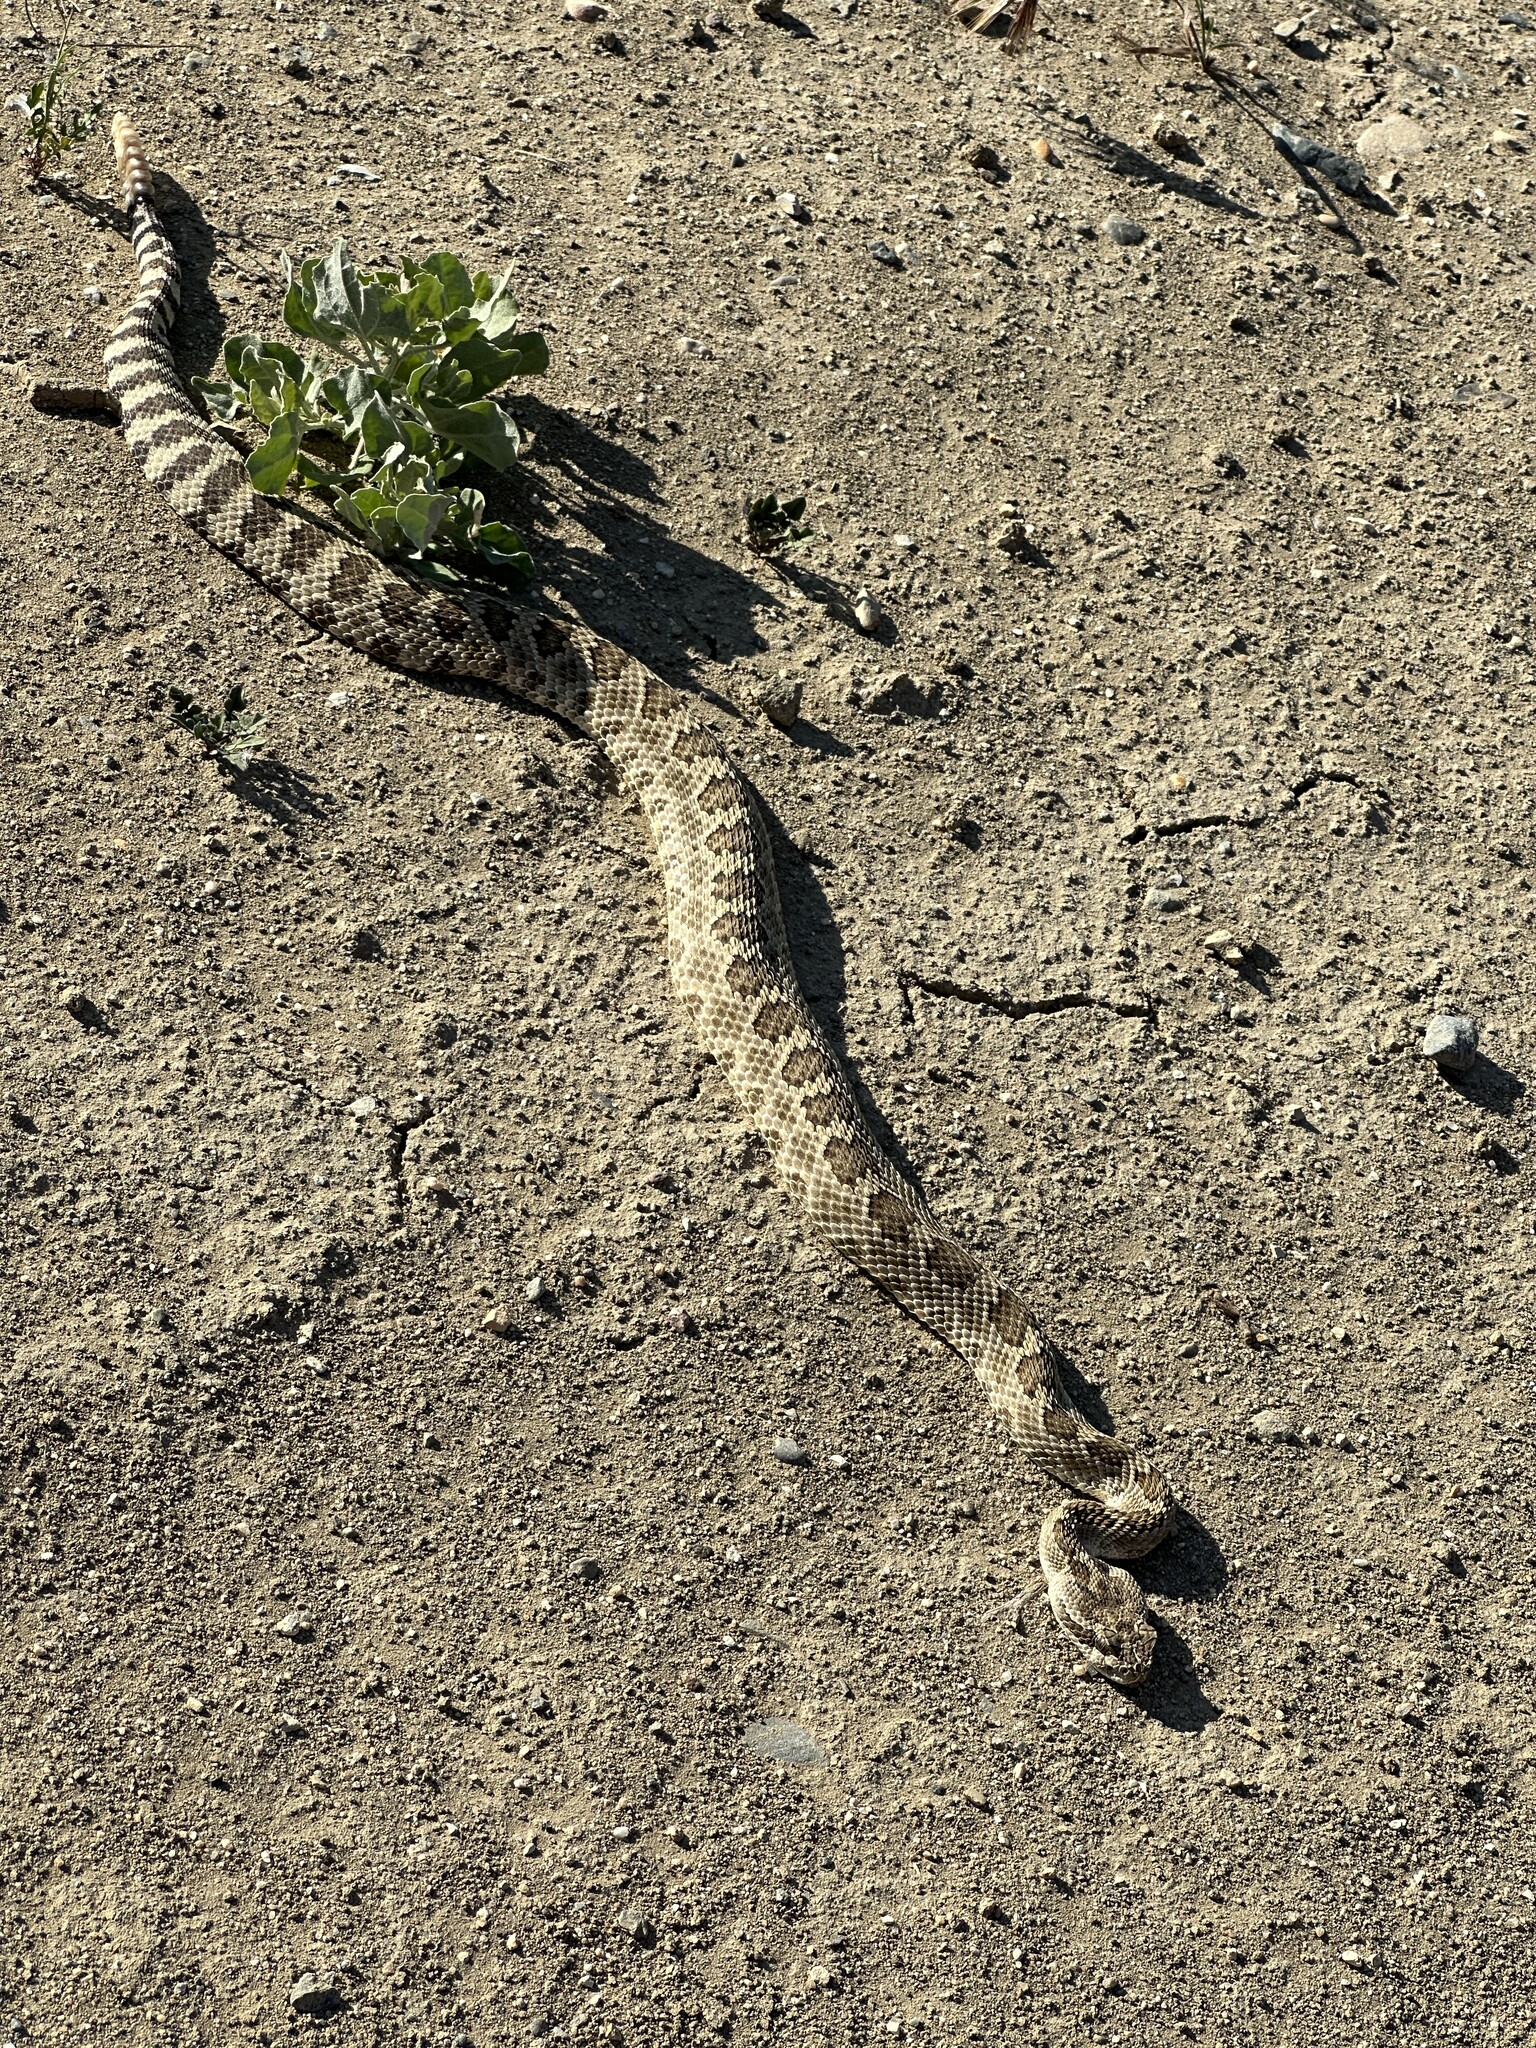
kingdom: Animalia
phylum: Chordata
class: Squamata
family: Viperidae
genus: Crotalus
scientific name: Crotalus oreganus
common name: Abyssus
